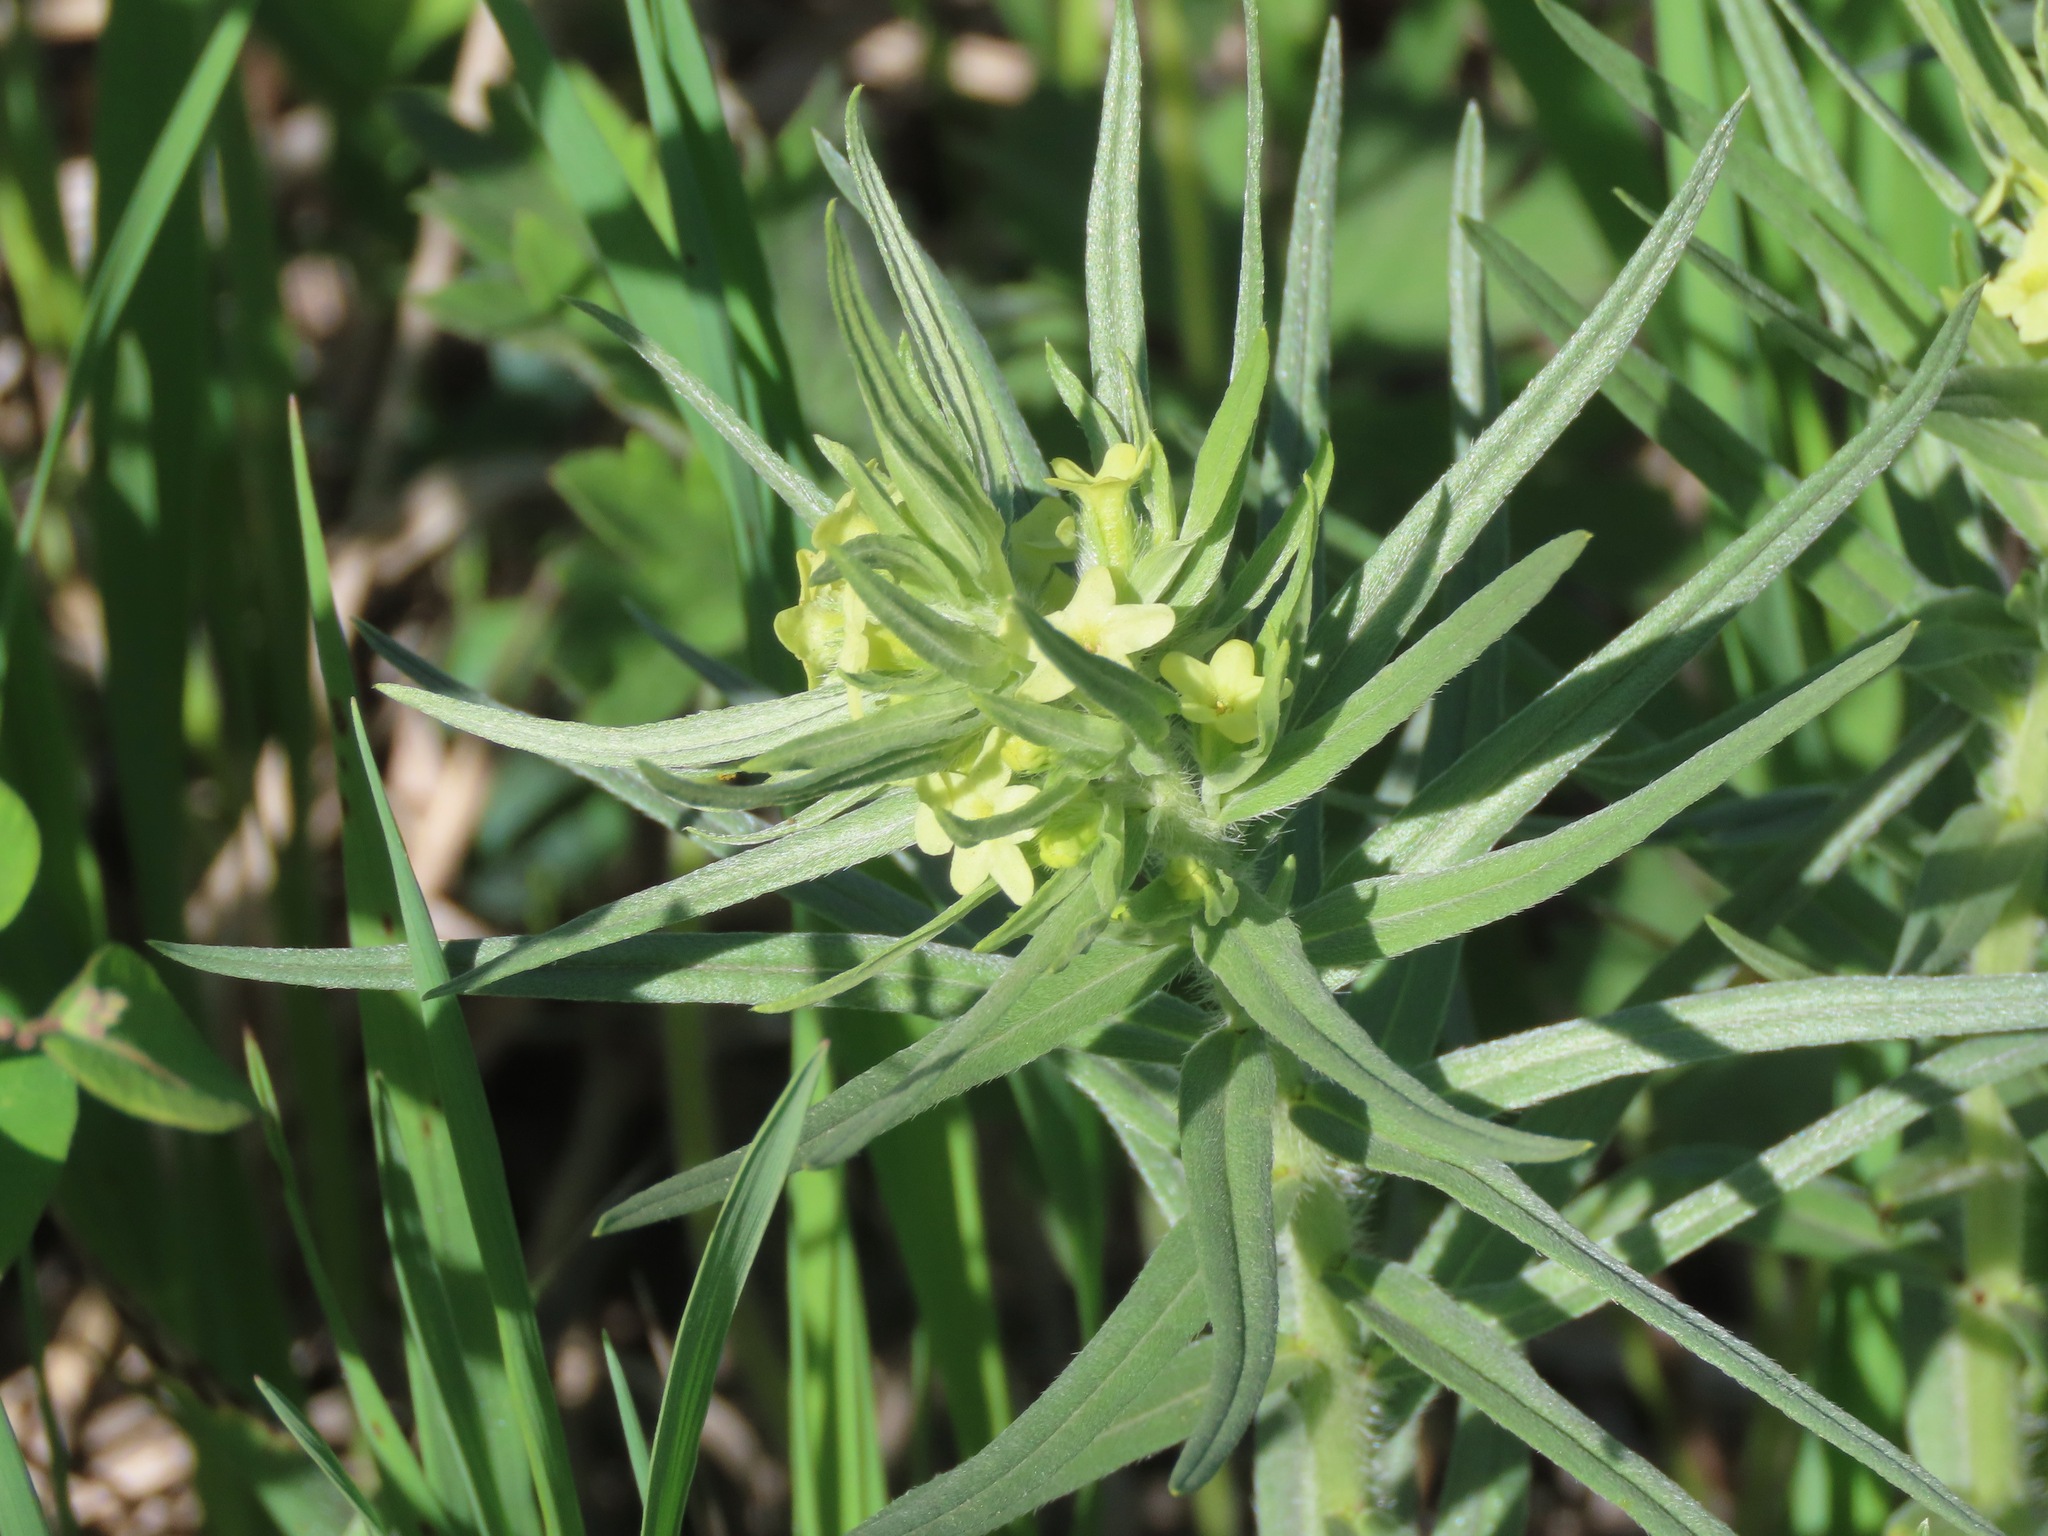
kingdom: Plantae
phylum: Tracheophyta
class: Magnoliopsida
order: Boraginales
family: Boraginaceae
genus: Lithospermum
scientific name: Lithospermum ruderale
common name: Western gromwell
